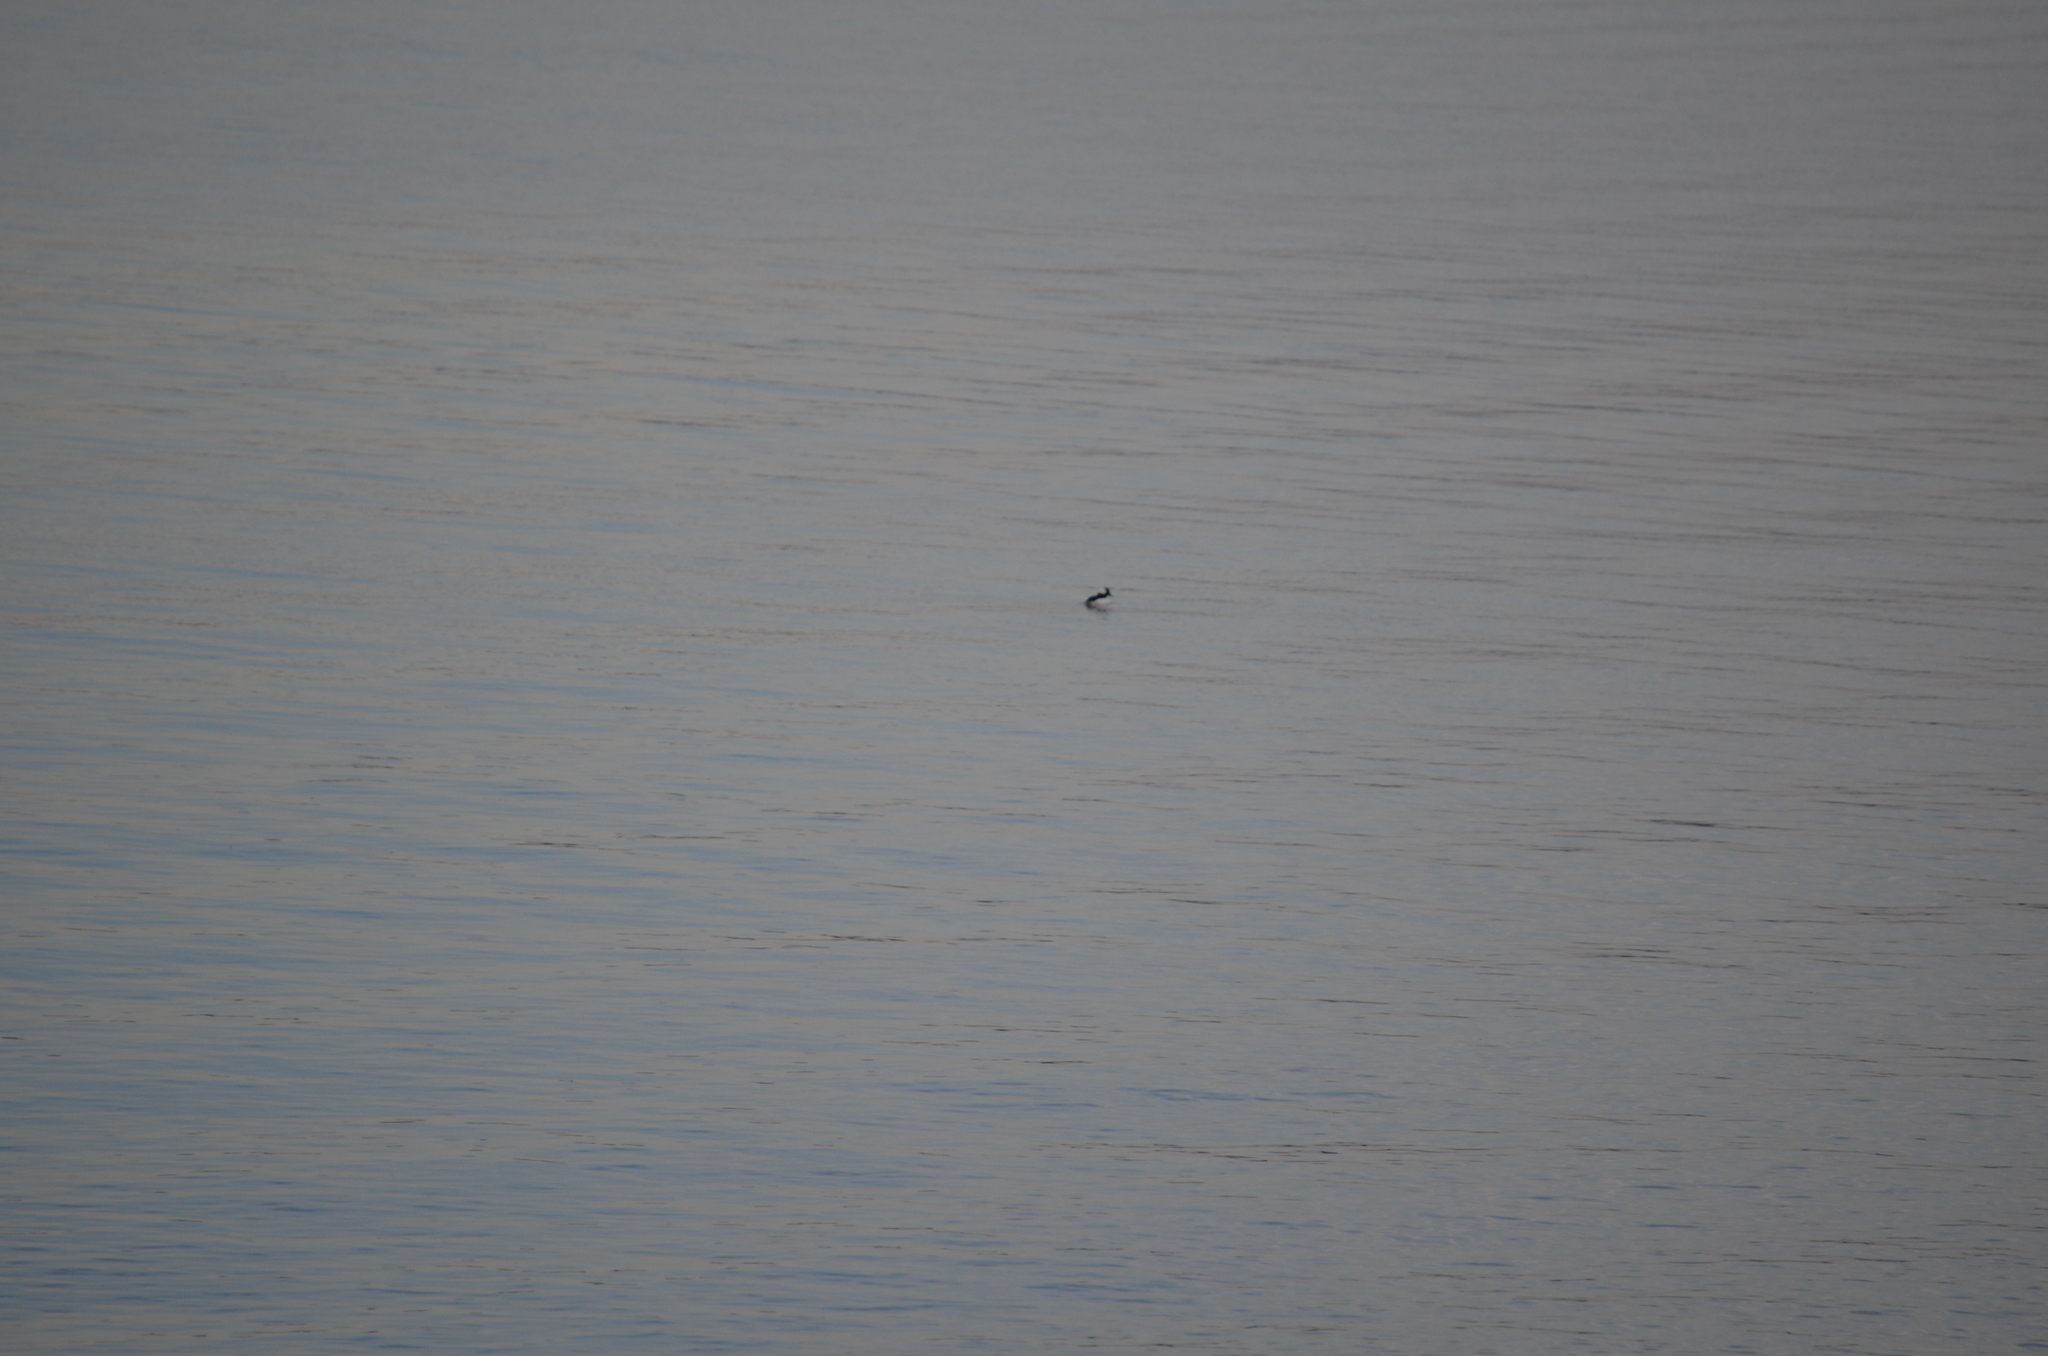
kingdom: Animalia
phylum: Chordata
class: Aves
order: Anseriformes
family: Anatidae
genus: Bucephala
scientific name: Bucephala albeola
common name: Bufflehead
